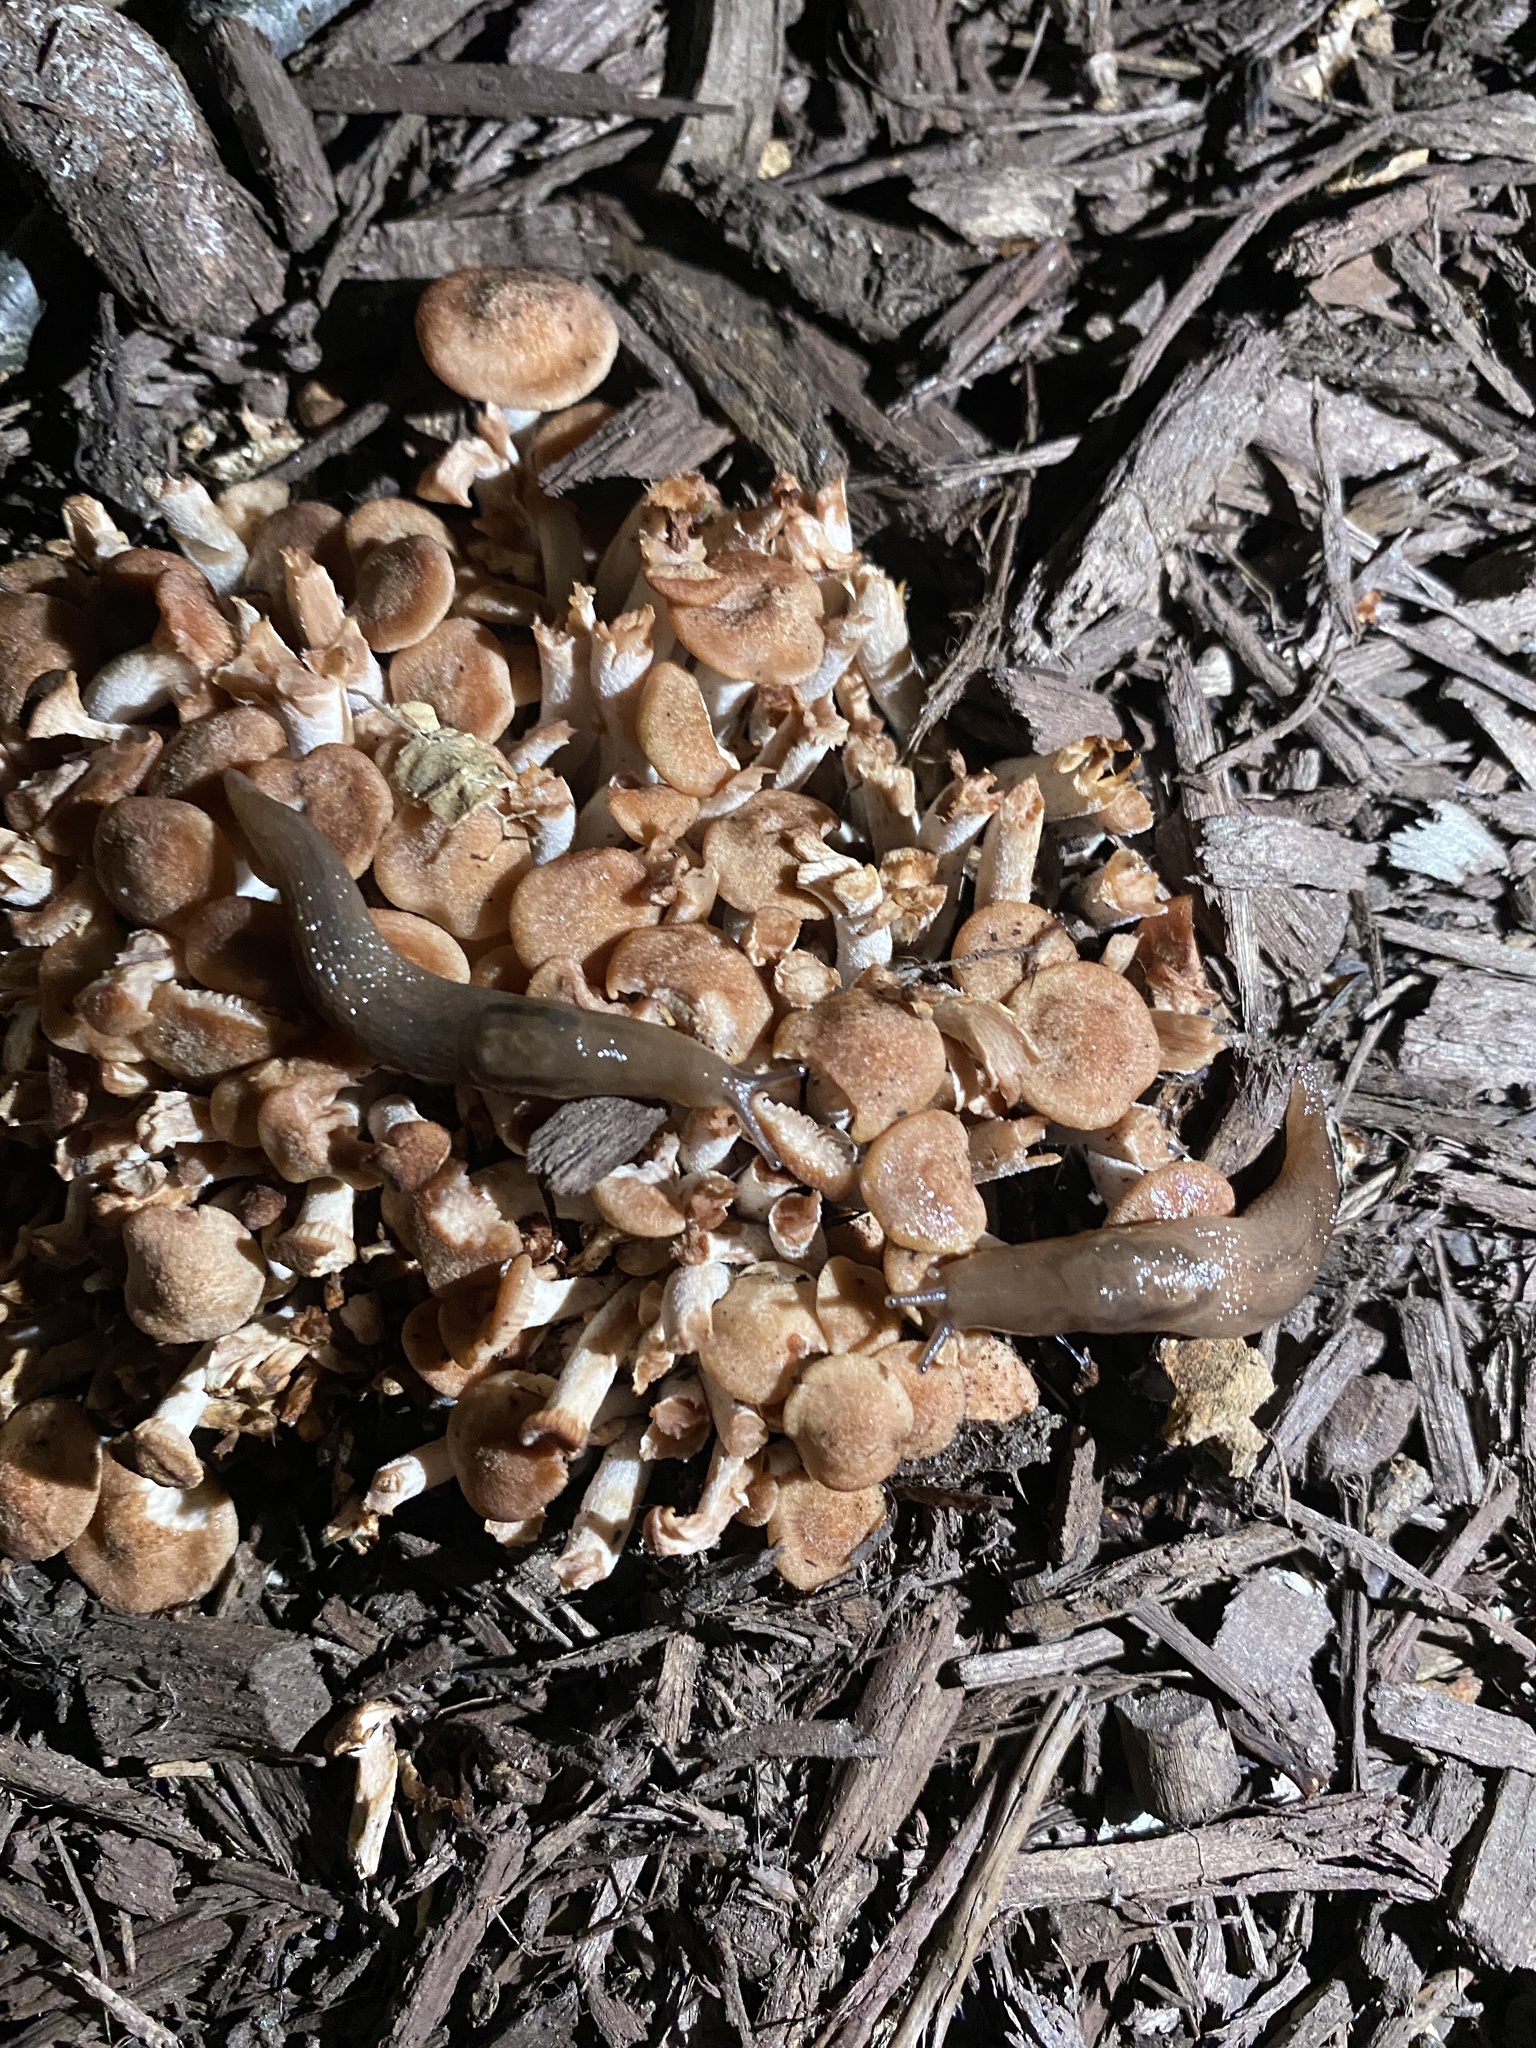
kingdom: Fungi
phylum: Basidiomycota
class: Agaricomycetes
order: Agaricales
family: Physalacriaceae
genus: Desarmillaria
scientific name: Desarmillaria caespitosa
